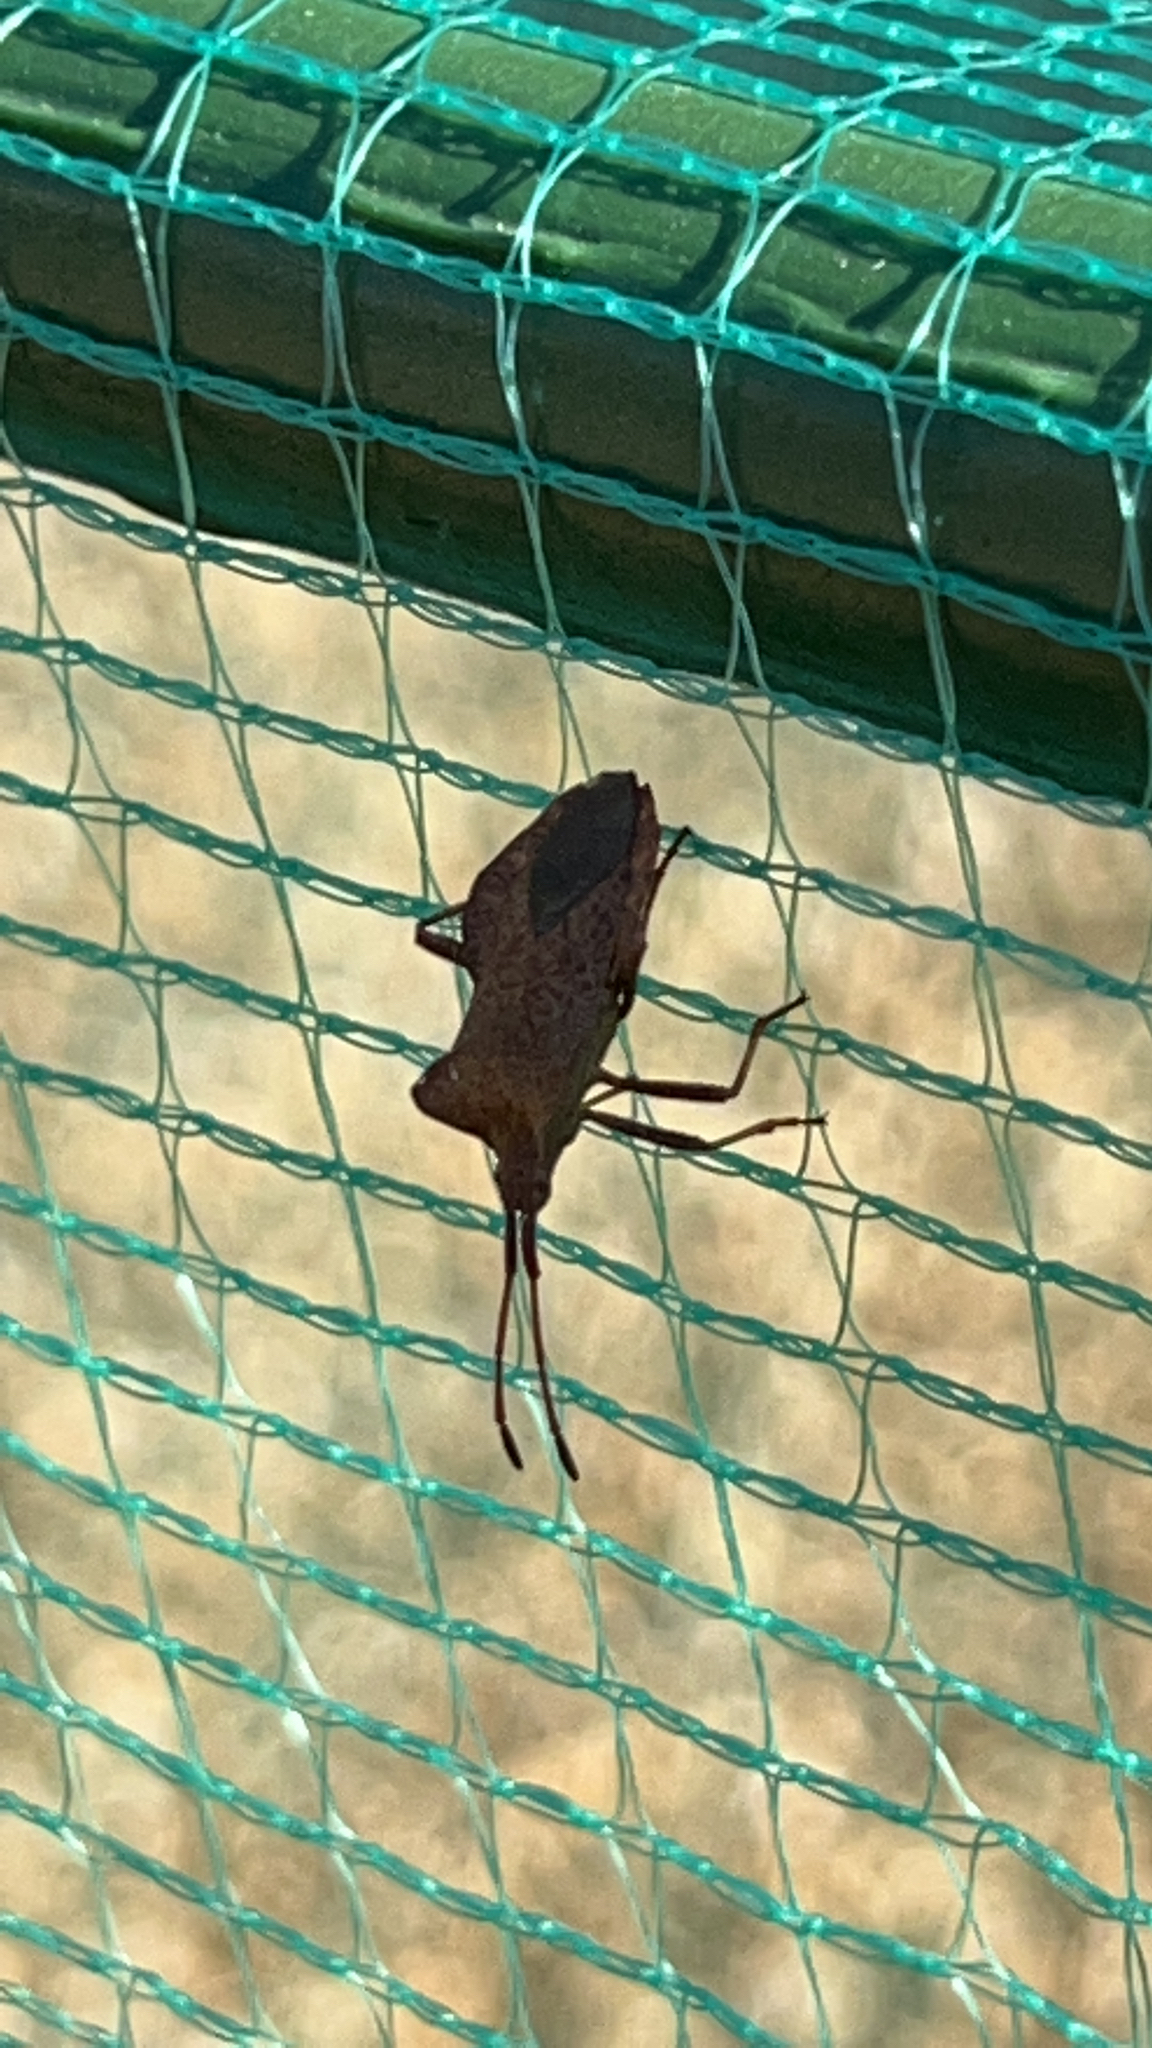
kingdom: Animalia
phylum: Arthropoda
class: Insecta
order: Hemiptera
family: Coreidae
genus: Coreus
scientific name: Coreus marginatus
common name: Dock bug
